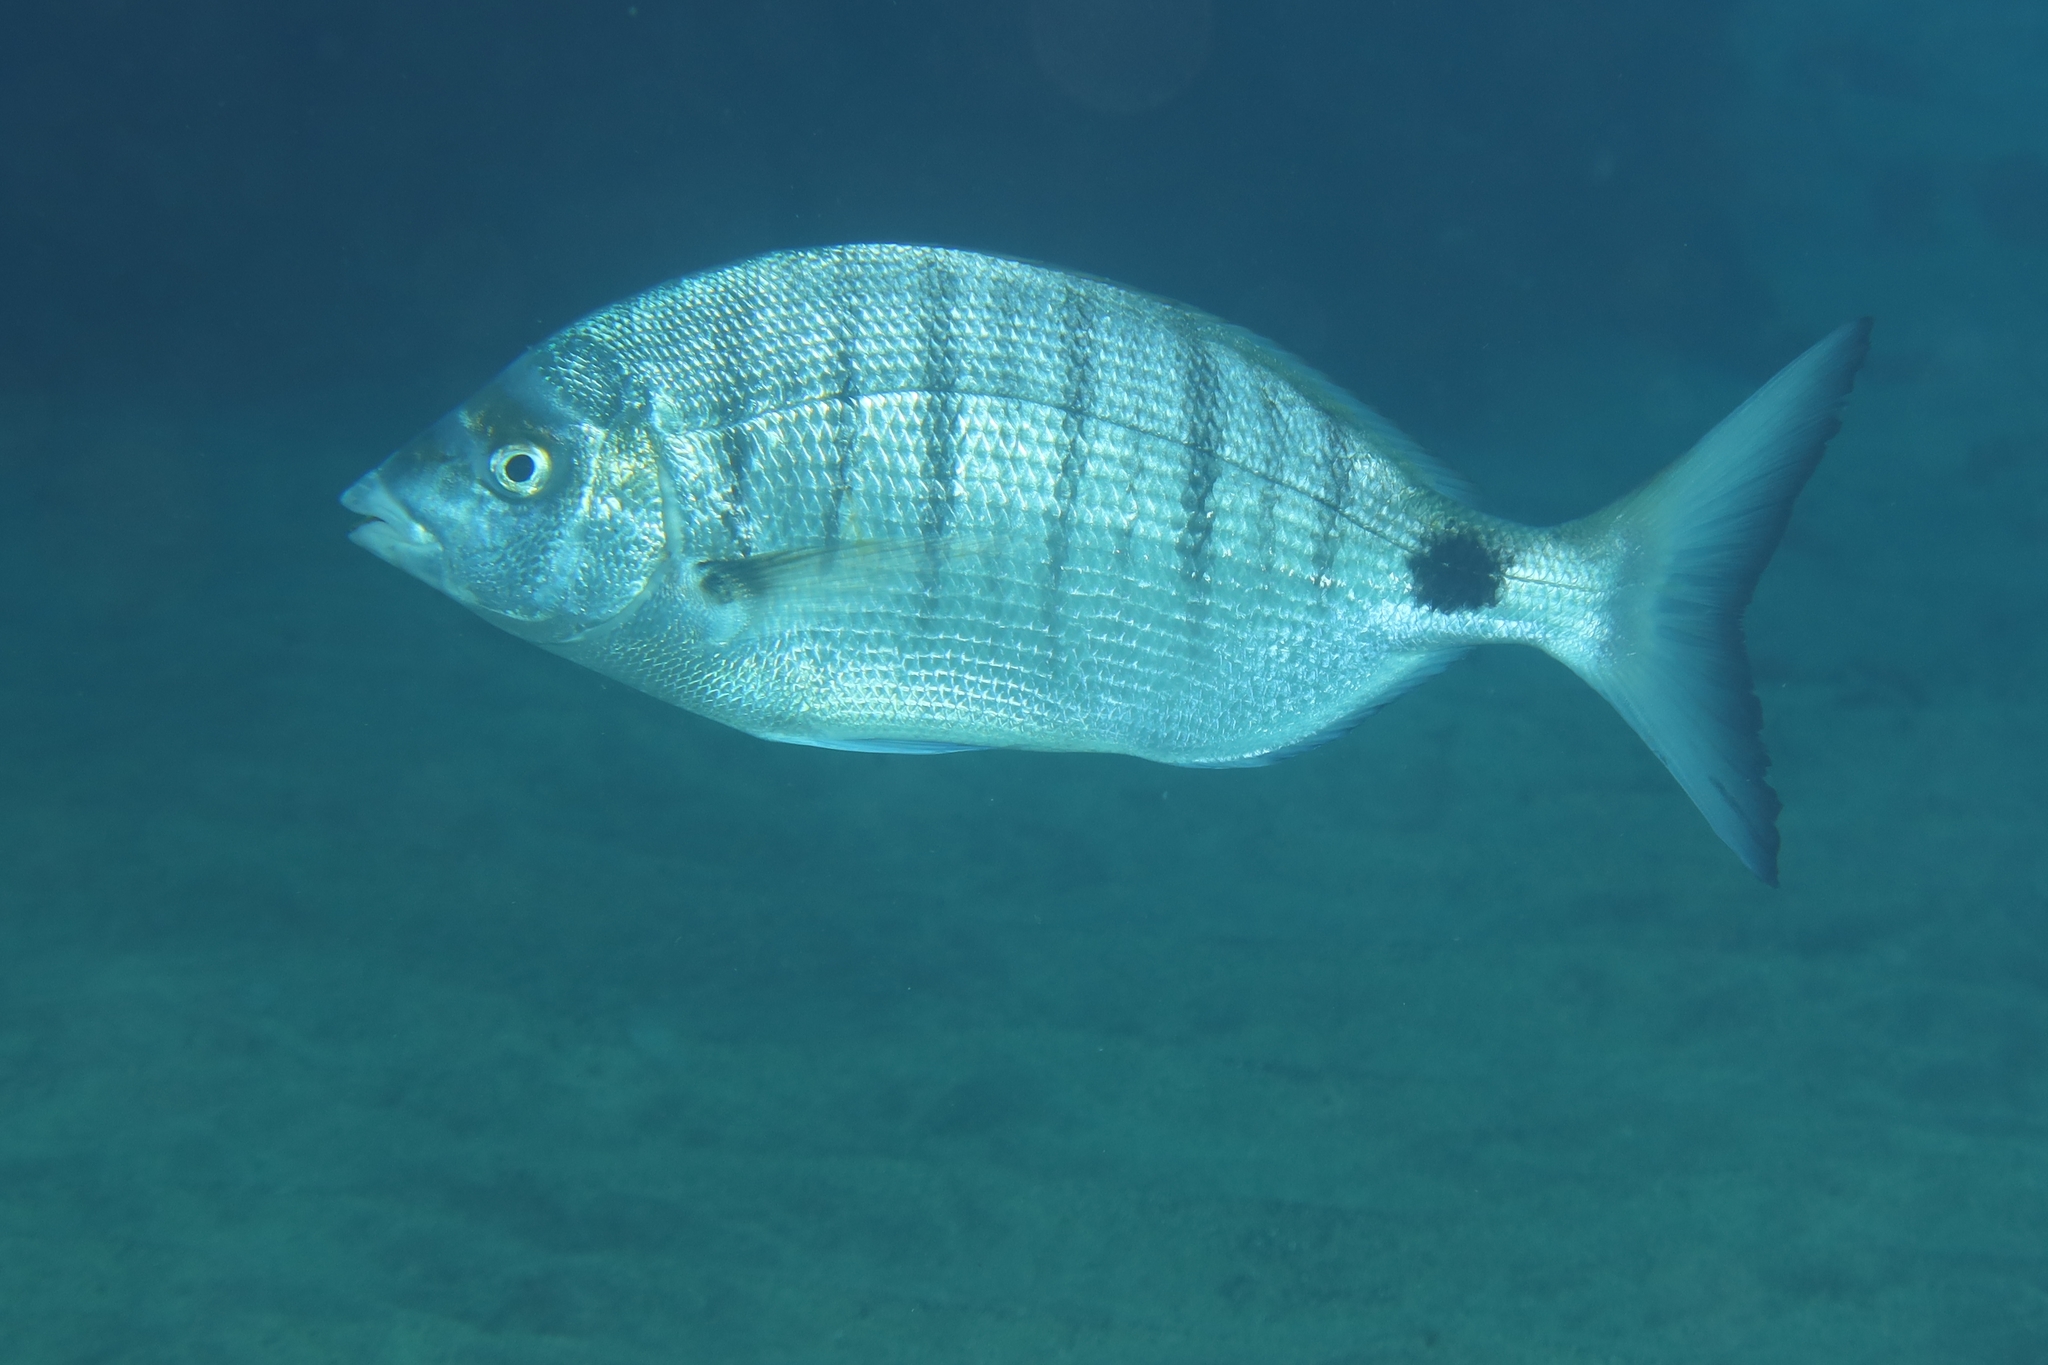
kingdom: Animalia
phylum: Chordata
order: Perciformes
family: Sparidae
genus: Diplodus
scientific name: Diplodus puntazzo
